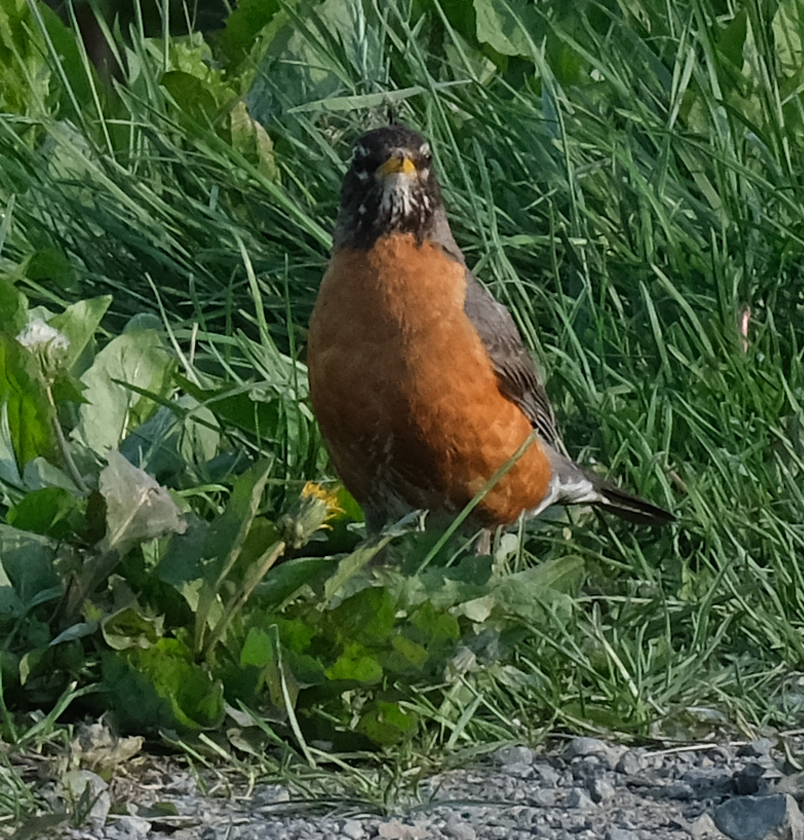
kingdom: Animalia
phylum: Chordata
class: Aves
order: Passeriformes
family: Turdidae
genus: Turdus
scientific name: Turdus migratorius
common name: American robin
